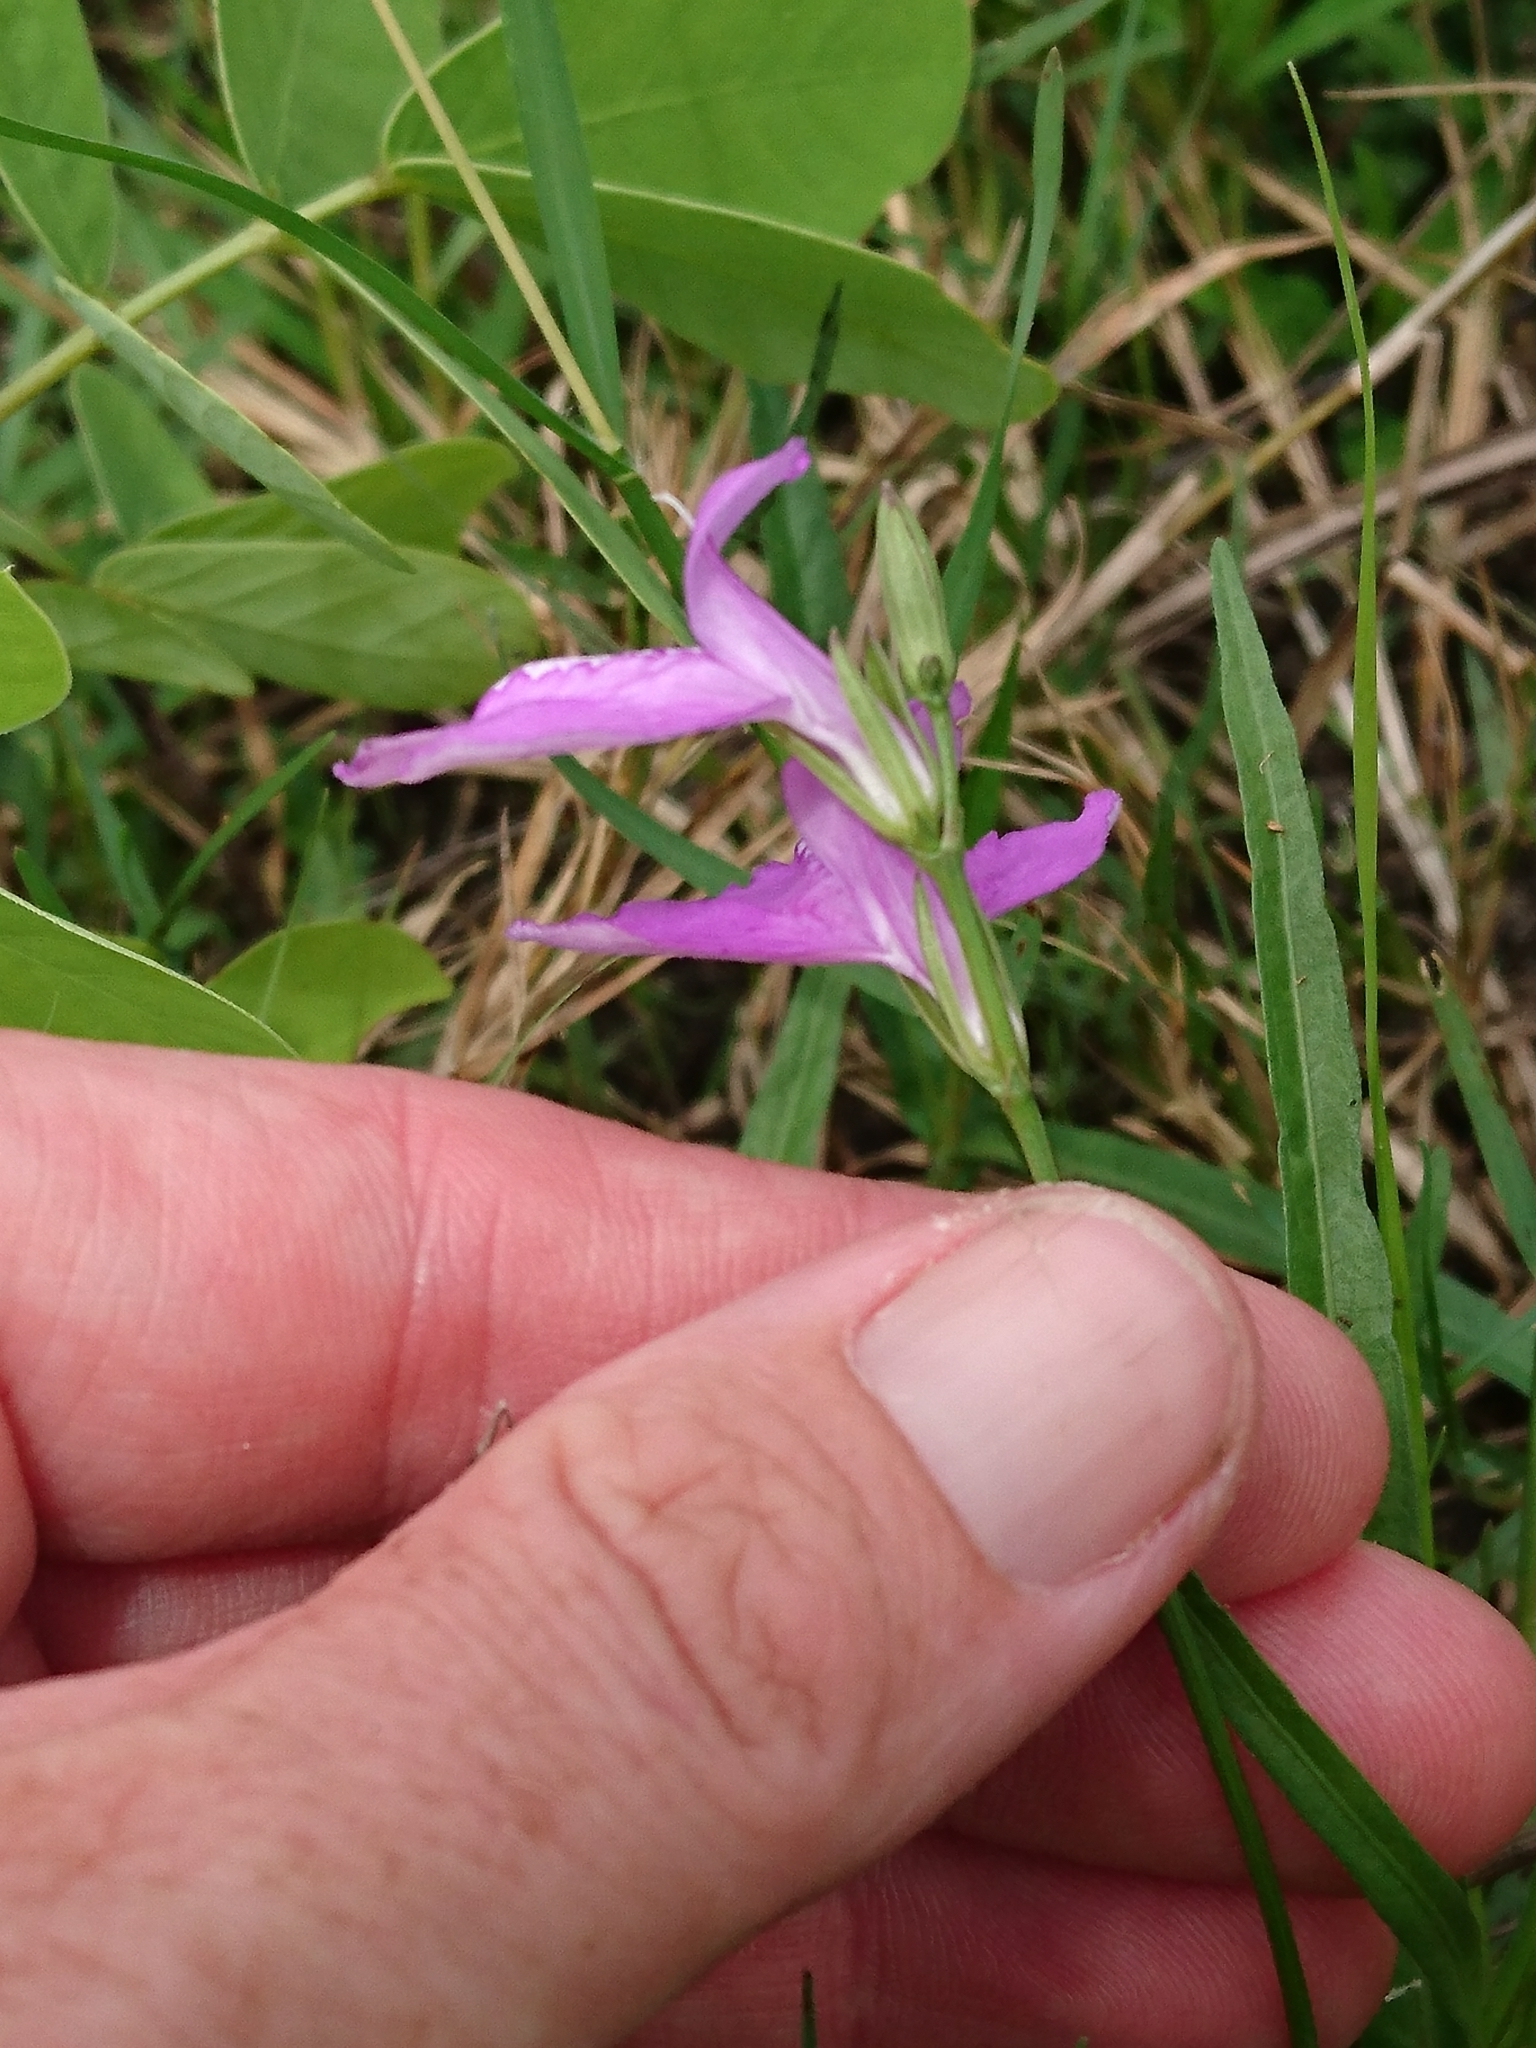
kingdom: Plantae
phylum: Tracheophyta
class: Magnoliopsida
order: Lamiales
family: Acanthaceae
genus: Dianthera
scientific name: Dianthera angusta
